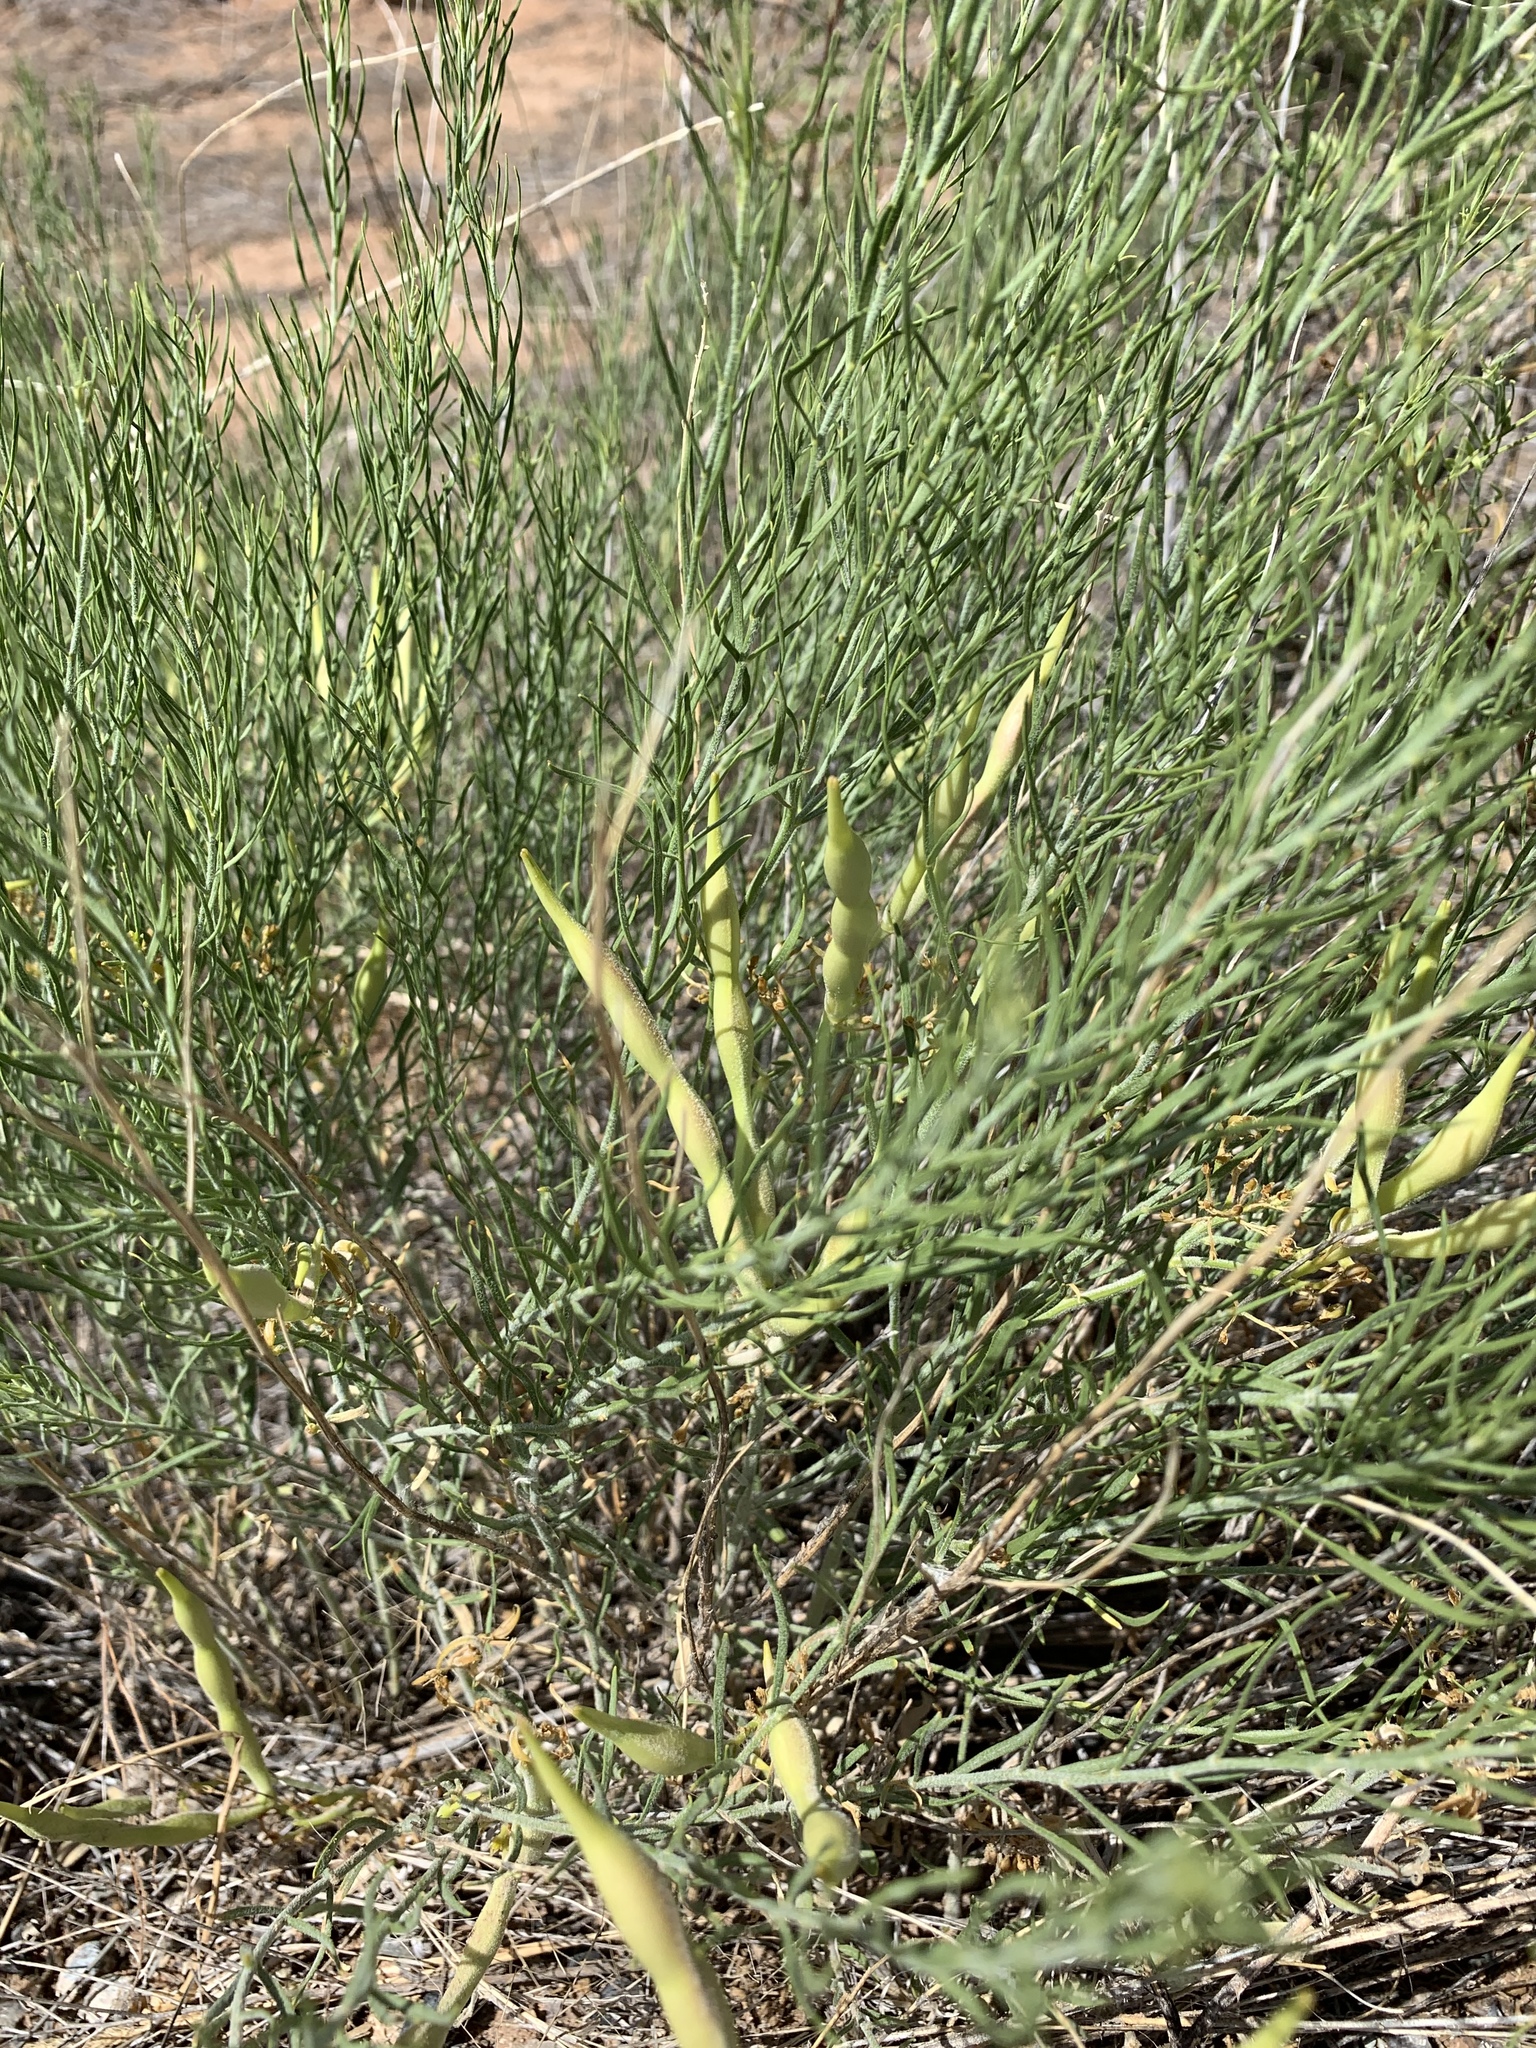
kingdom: Plantae
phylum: Tracheophyta
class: Magnoliopsida
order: Gentianales
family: Apocynaceae
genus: Amsonia
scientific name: Amsonia tomentosa
